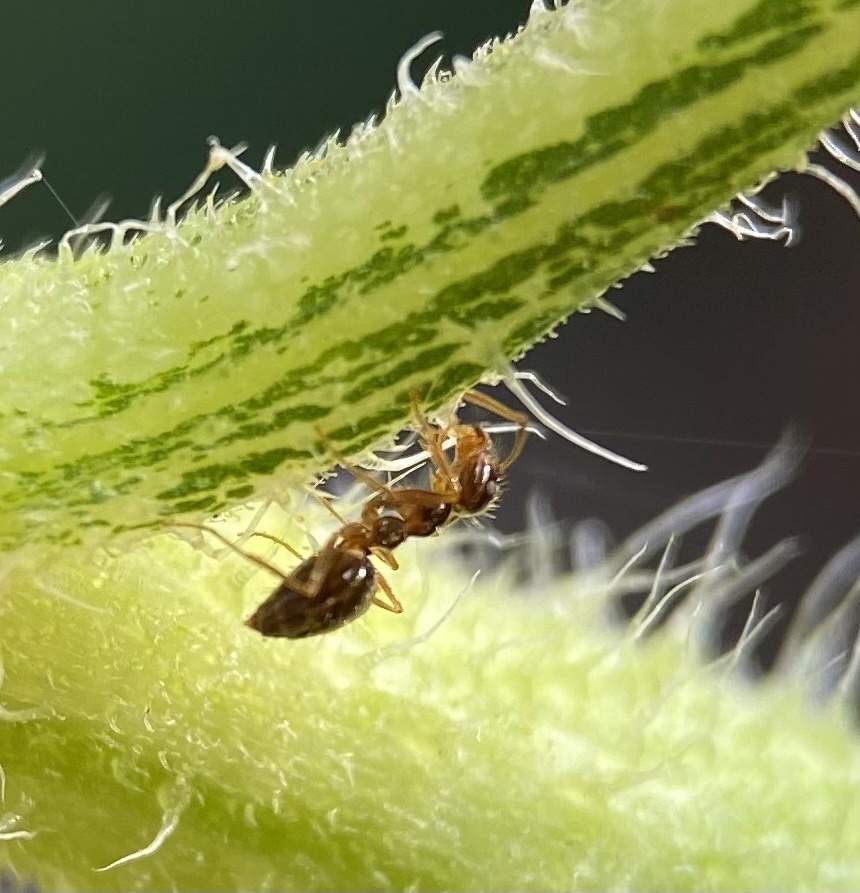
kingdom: Animalia
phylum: Arthropoda
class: Insecta
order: Hymenoptera
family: Formicidae
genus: Prenolepis
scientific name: Prenolepis imparis
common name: Small honey ant
